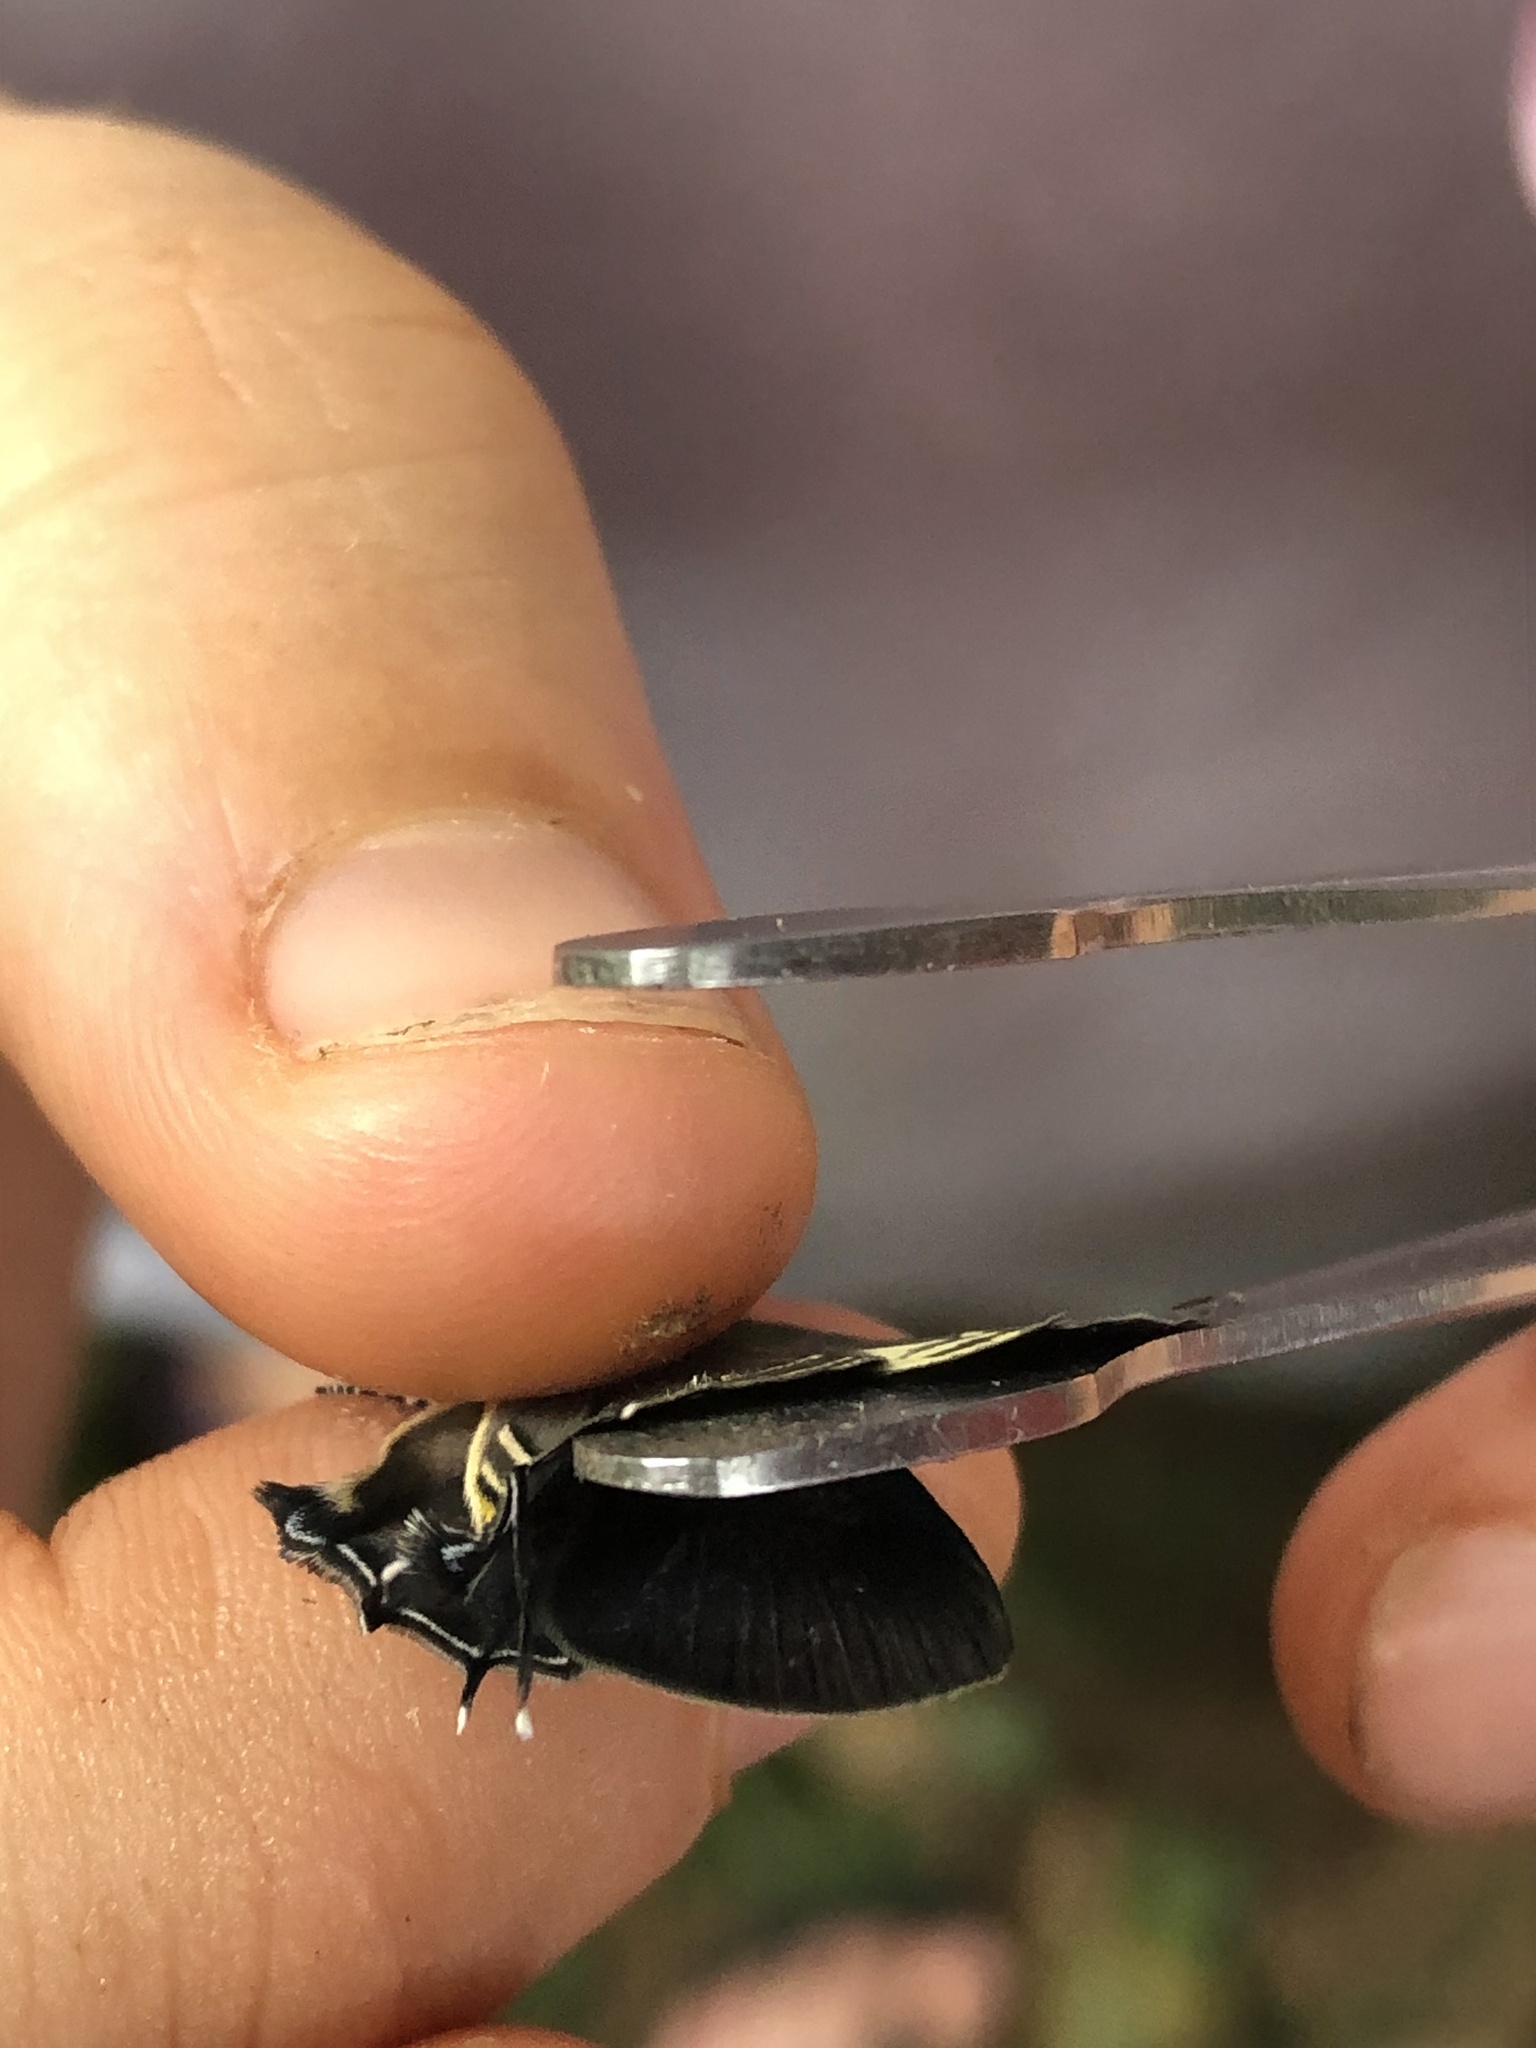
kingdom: Animalia
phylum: Arthropoda
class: Insecta
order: Lepidoptera
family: Lycaenidae
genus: Thecla
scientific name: Thecla terentia
